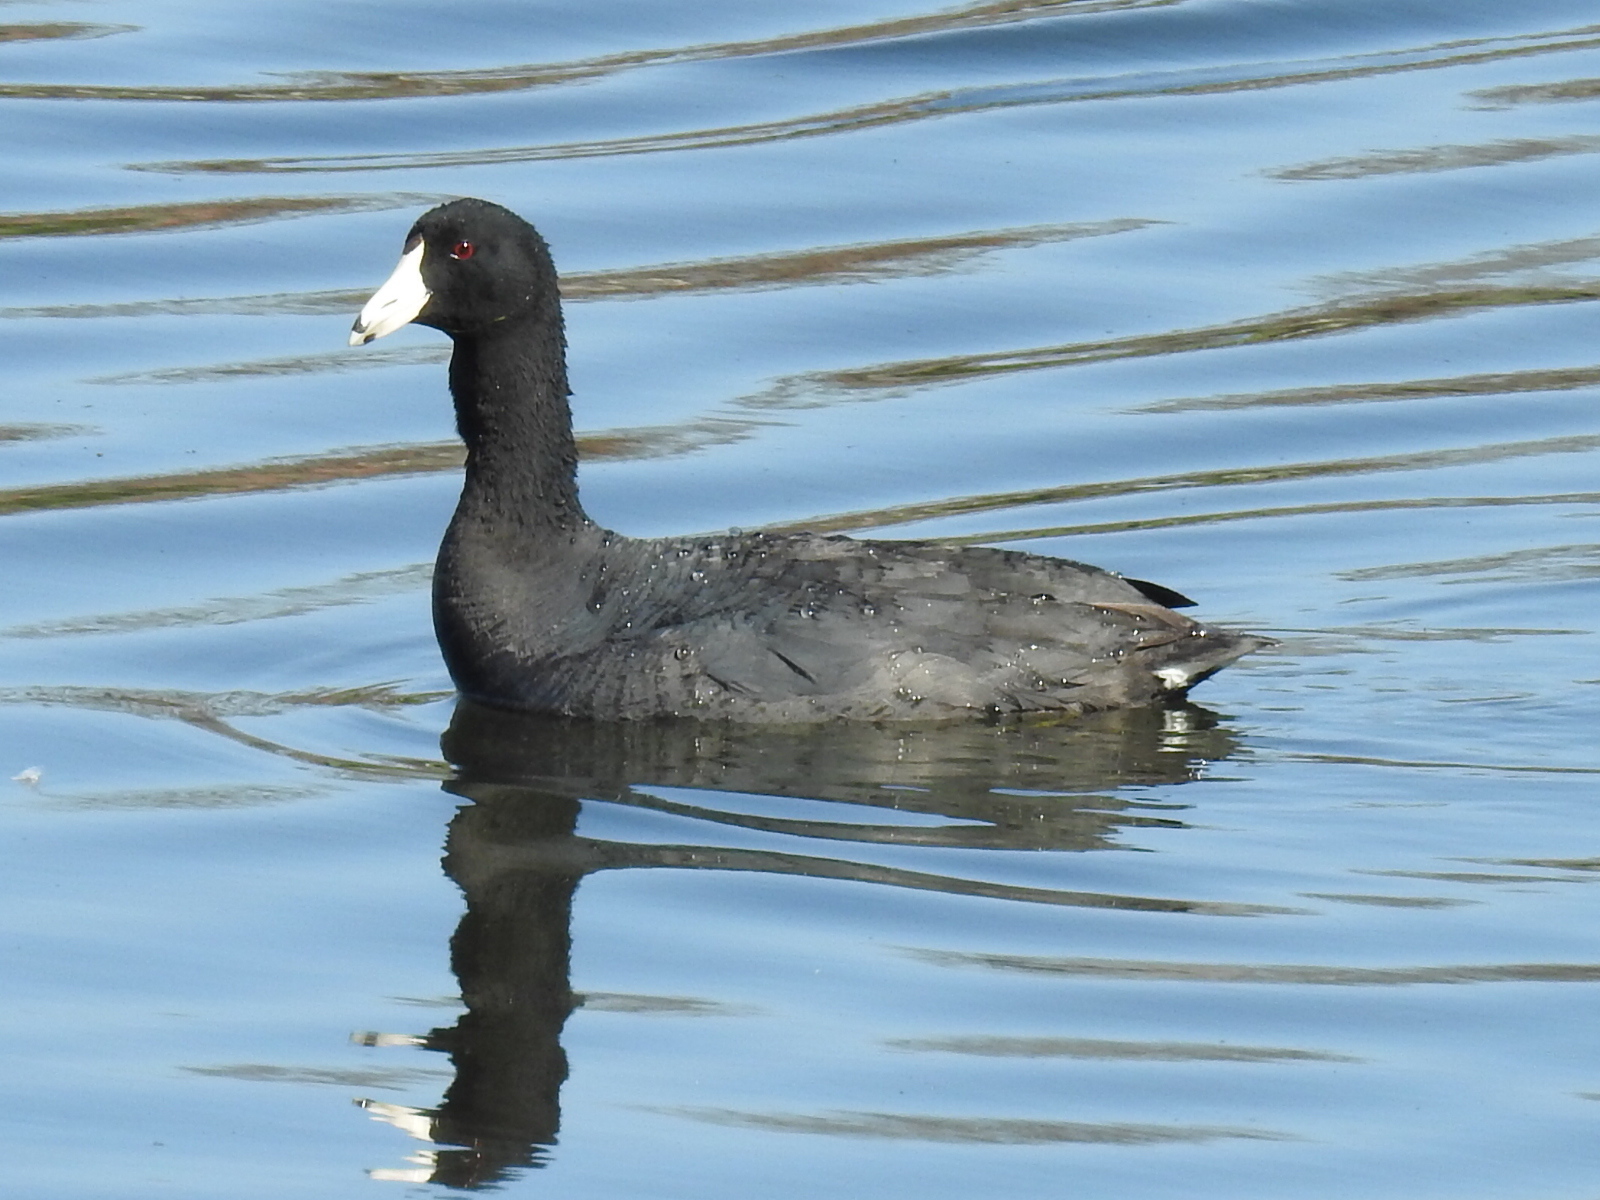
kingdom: Animalia
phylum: Chordata
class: Aves
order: Gruiformes
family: Rallidae
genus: Fulica
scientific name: Fulica americana
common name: American coot
